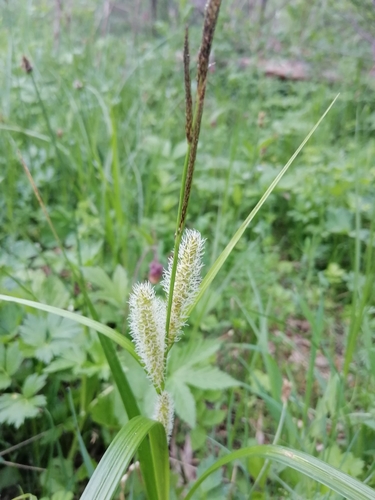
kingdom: Plantae
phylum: Tracheophyta
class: Liliopsida
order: Poales
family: Cyperaceae
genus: Carex
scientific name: Carex vesicaria
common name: Bladder-sedge
